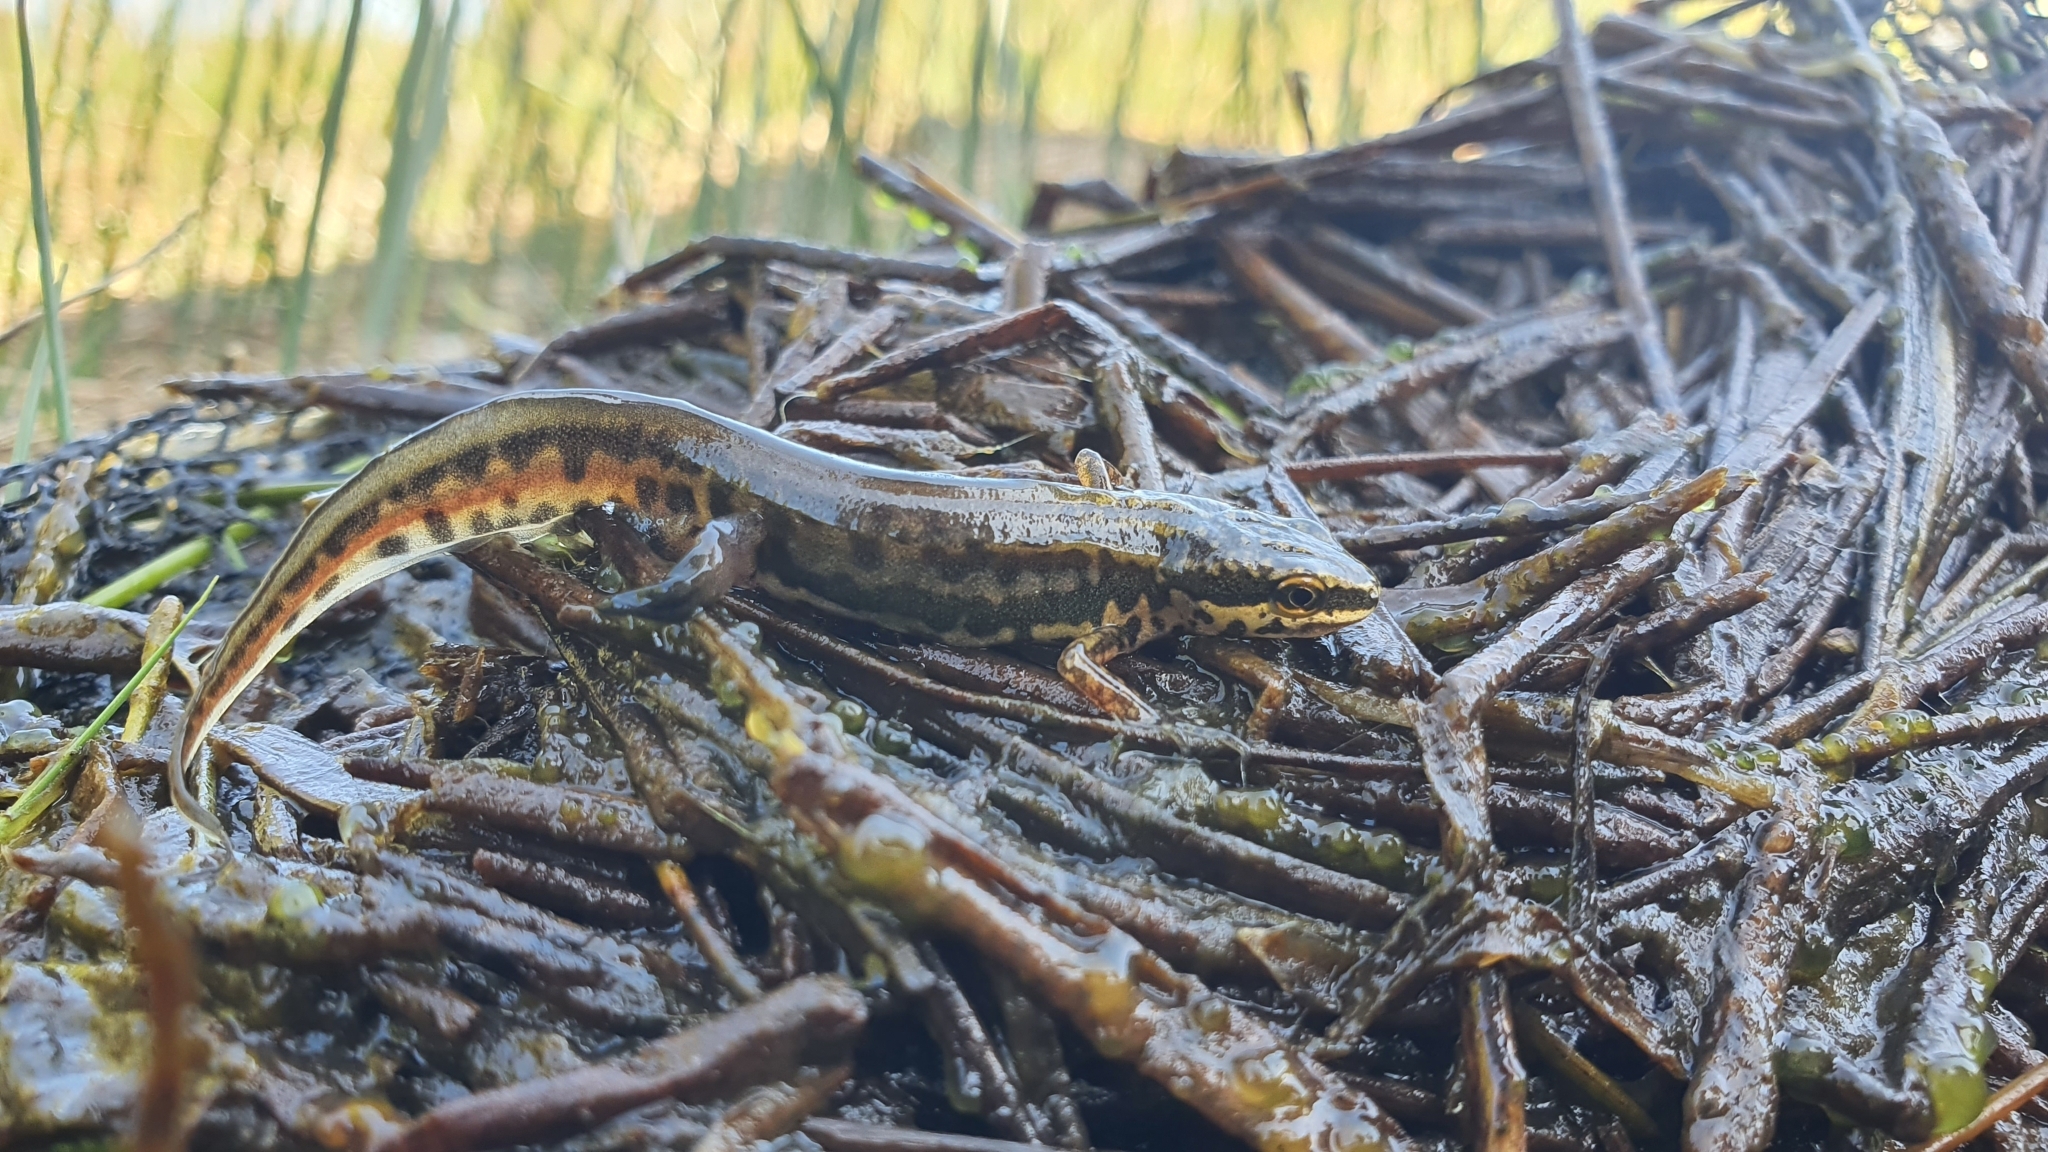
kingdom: Animalia
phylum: Chordata
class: Amphibia
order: Caudata
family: Salamandridae
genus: Lissotriton
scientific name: Lissotriton helveticus
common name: Palmate newt
